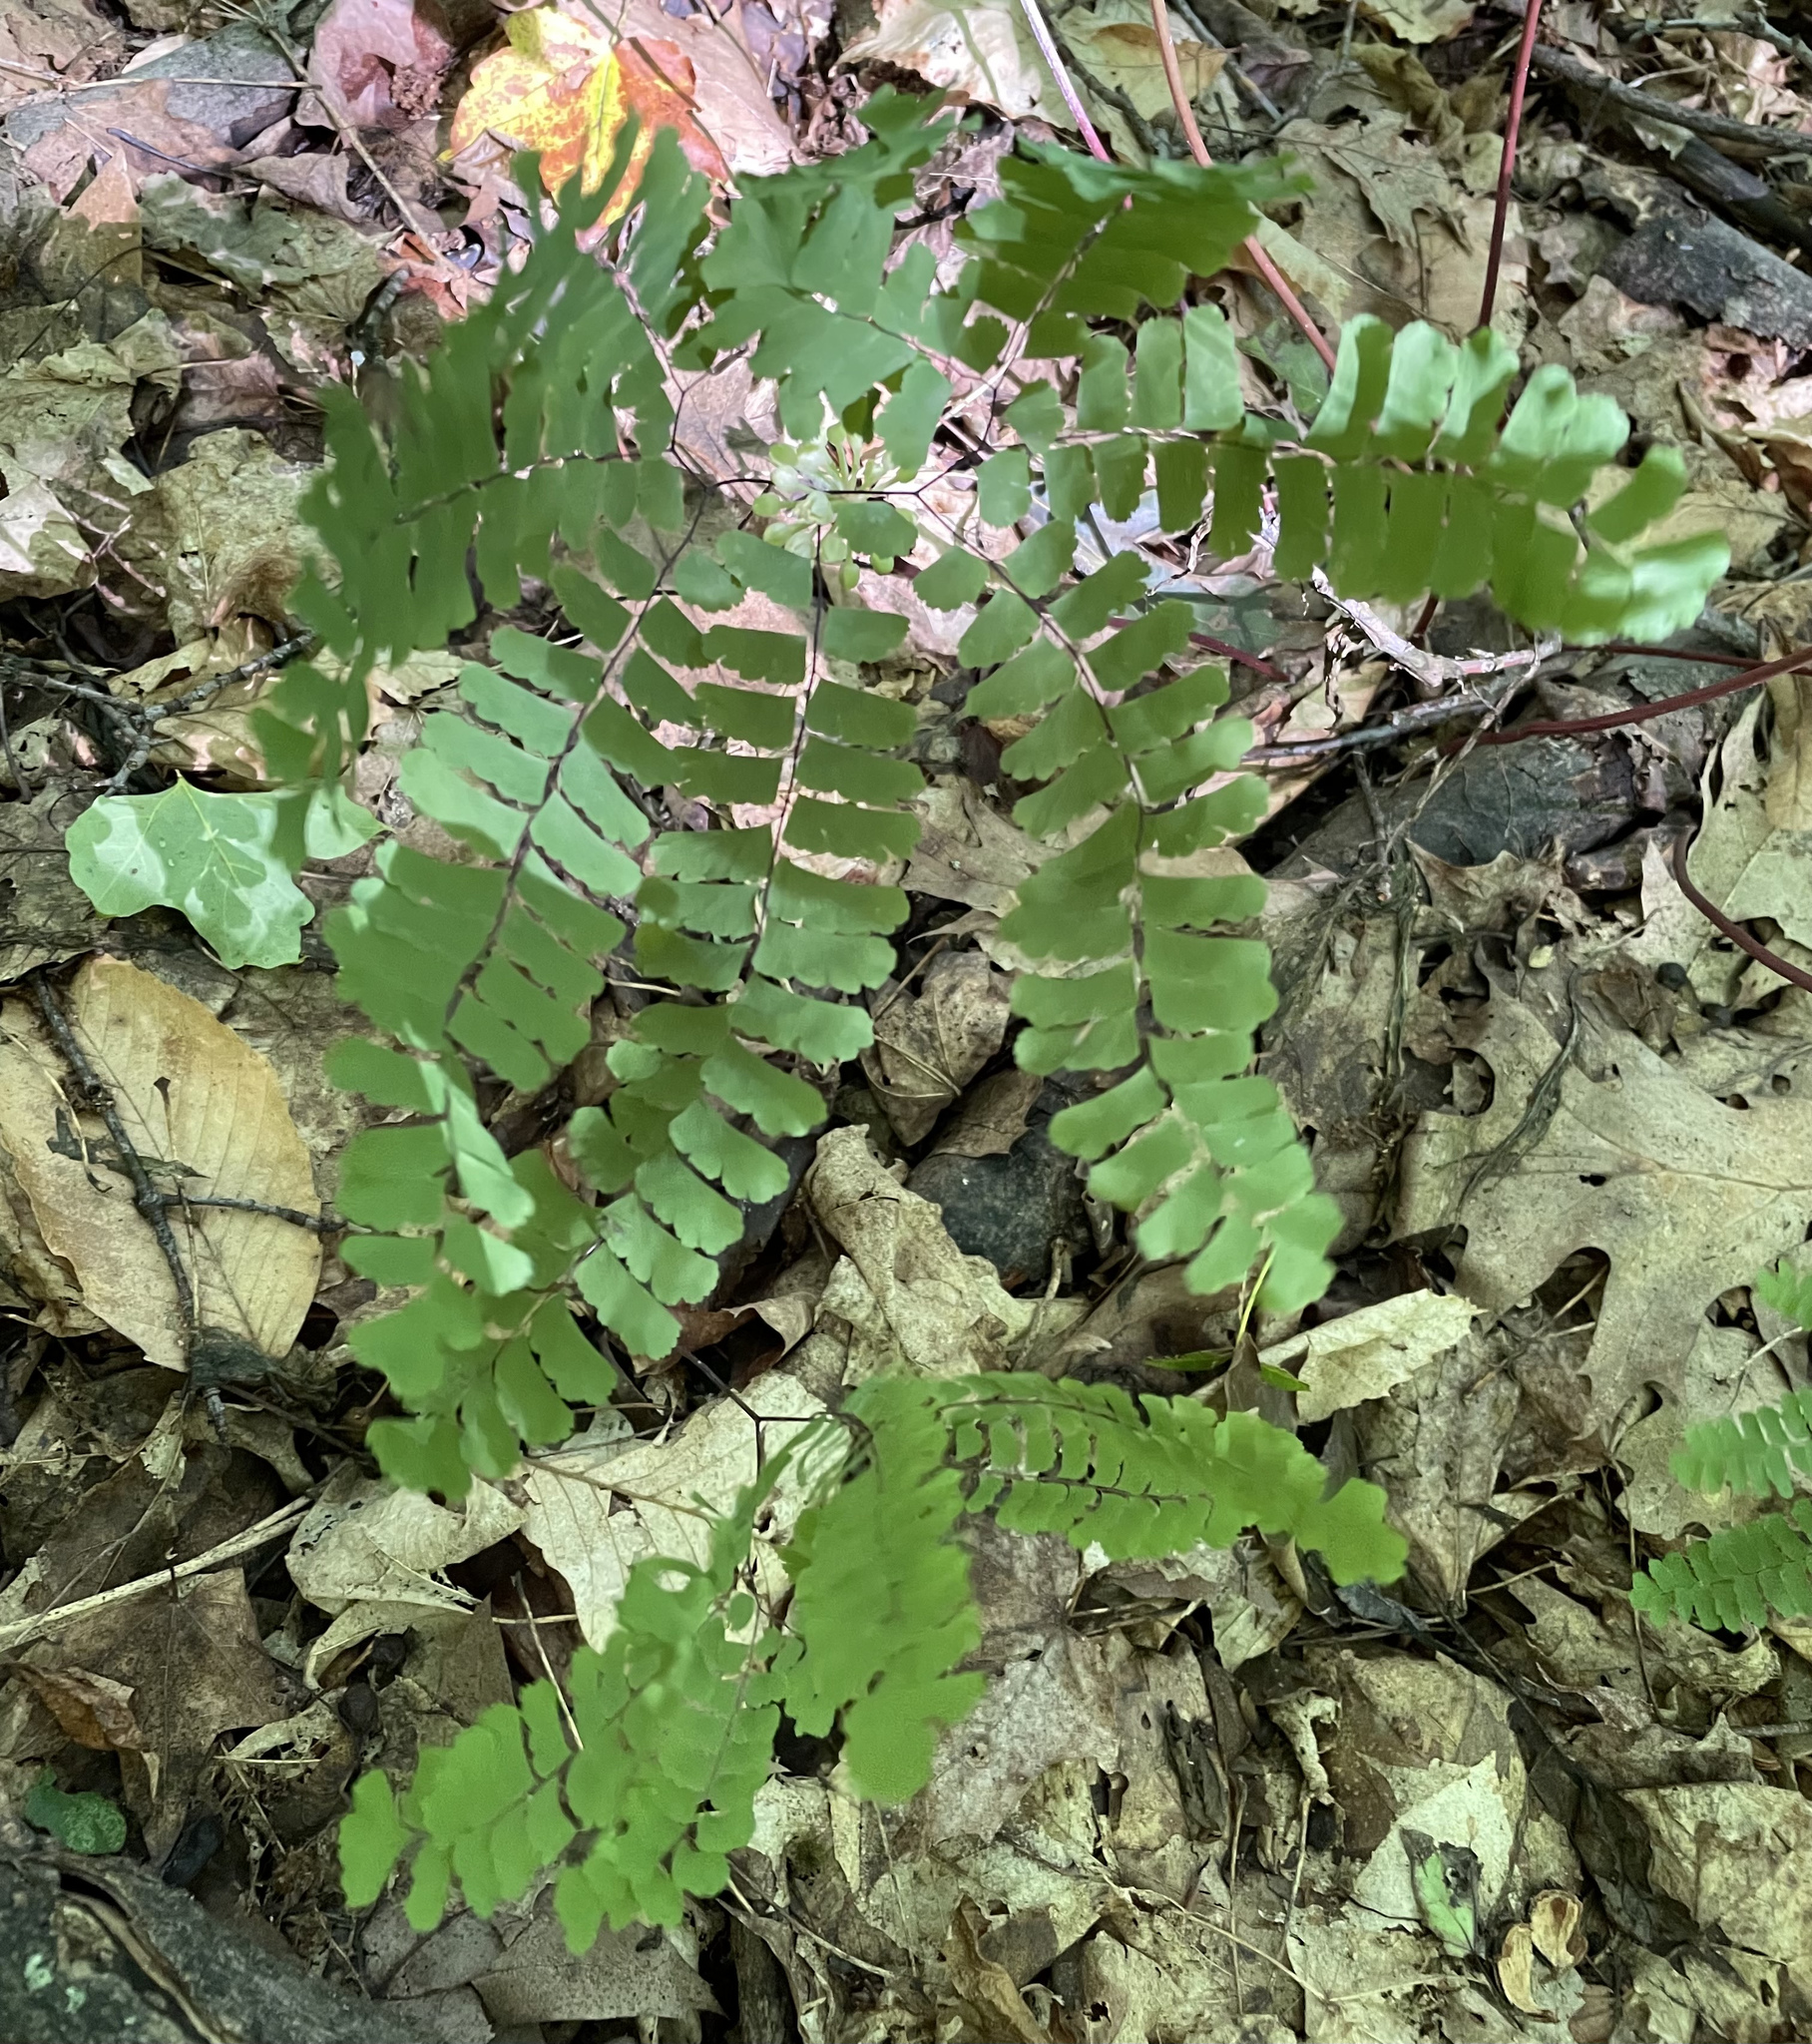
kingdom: Plantae
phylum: Tracheophyta
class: Polypodiopsida
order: Polypodiales
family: Pteridaceae
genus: Adiantum
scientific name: Adiantum pedatum
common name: Five-finger fern
